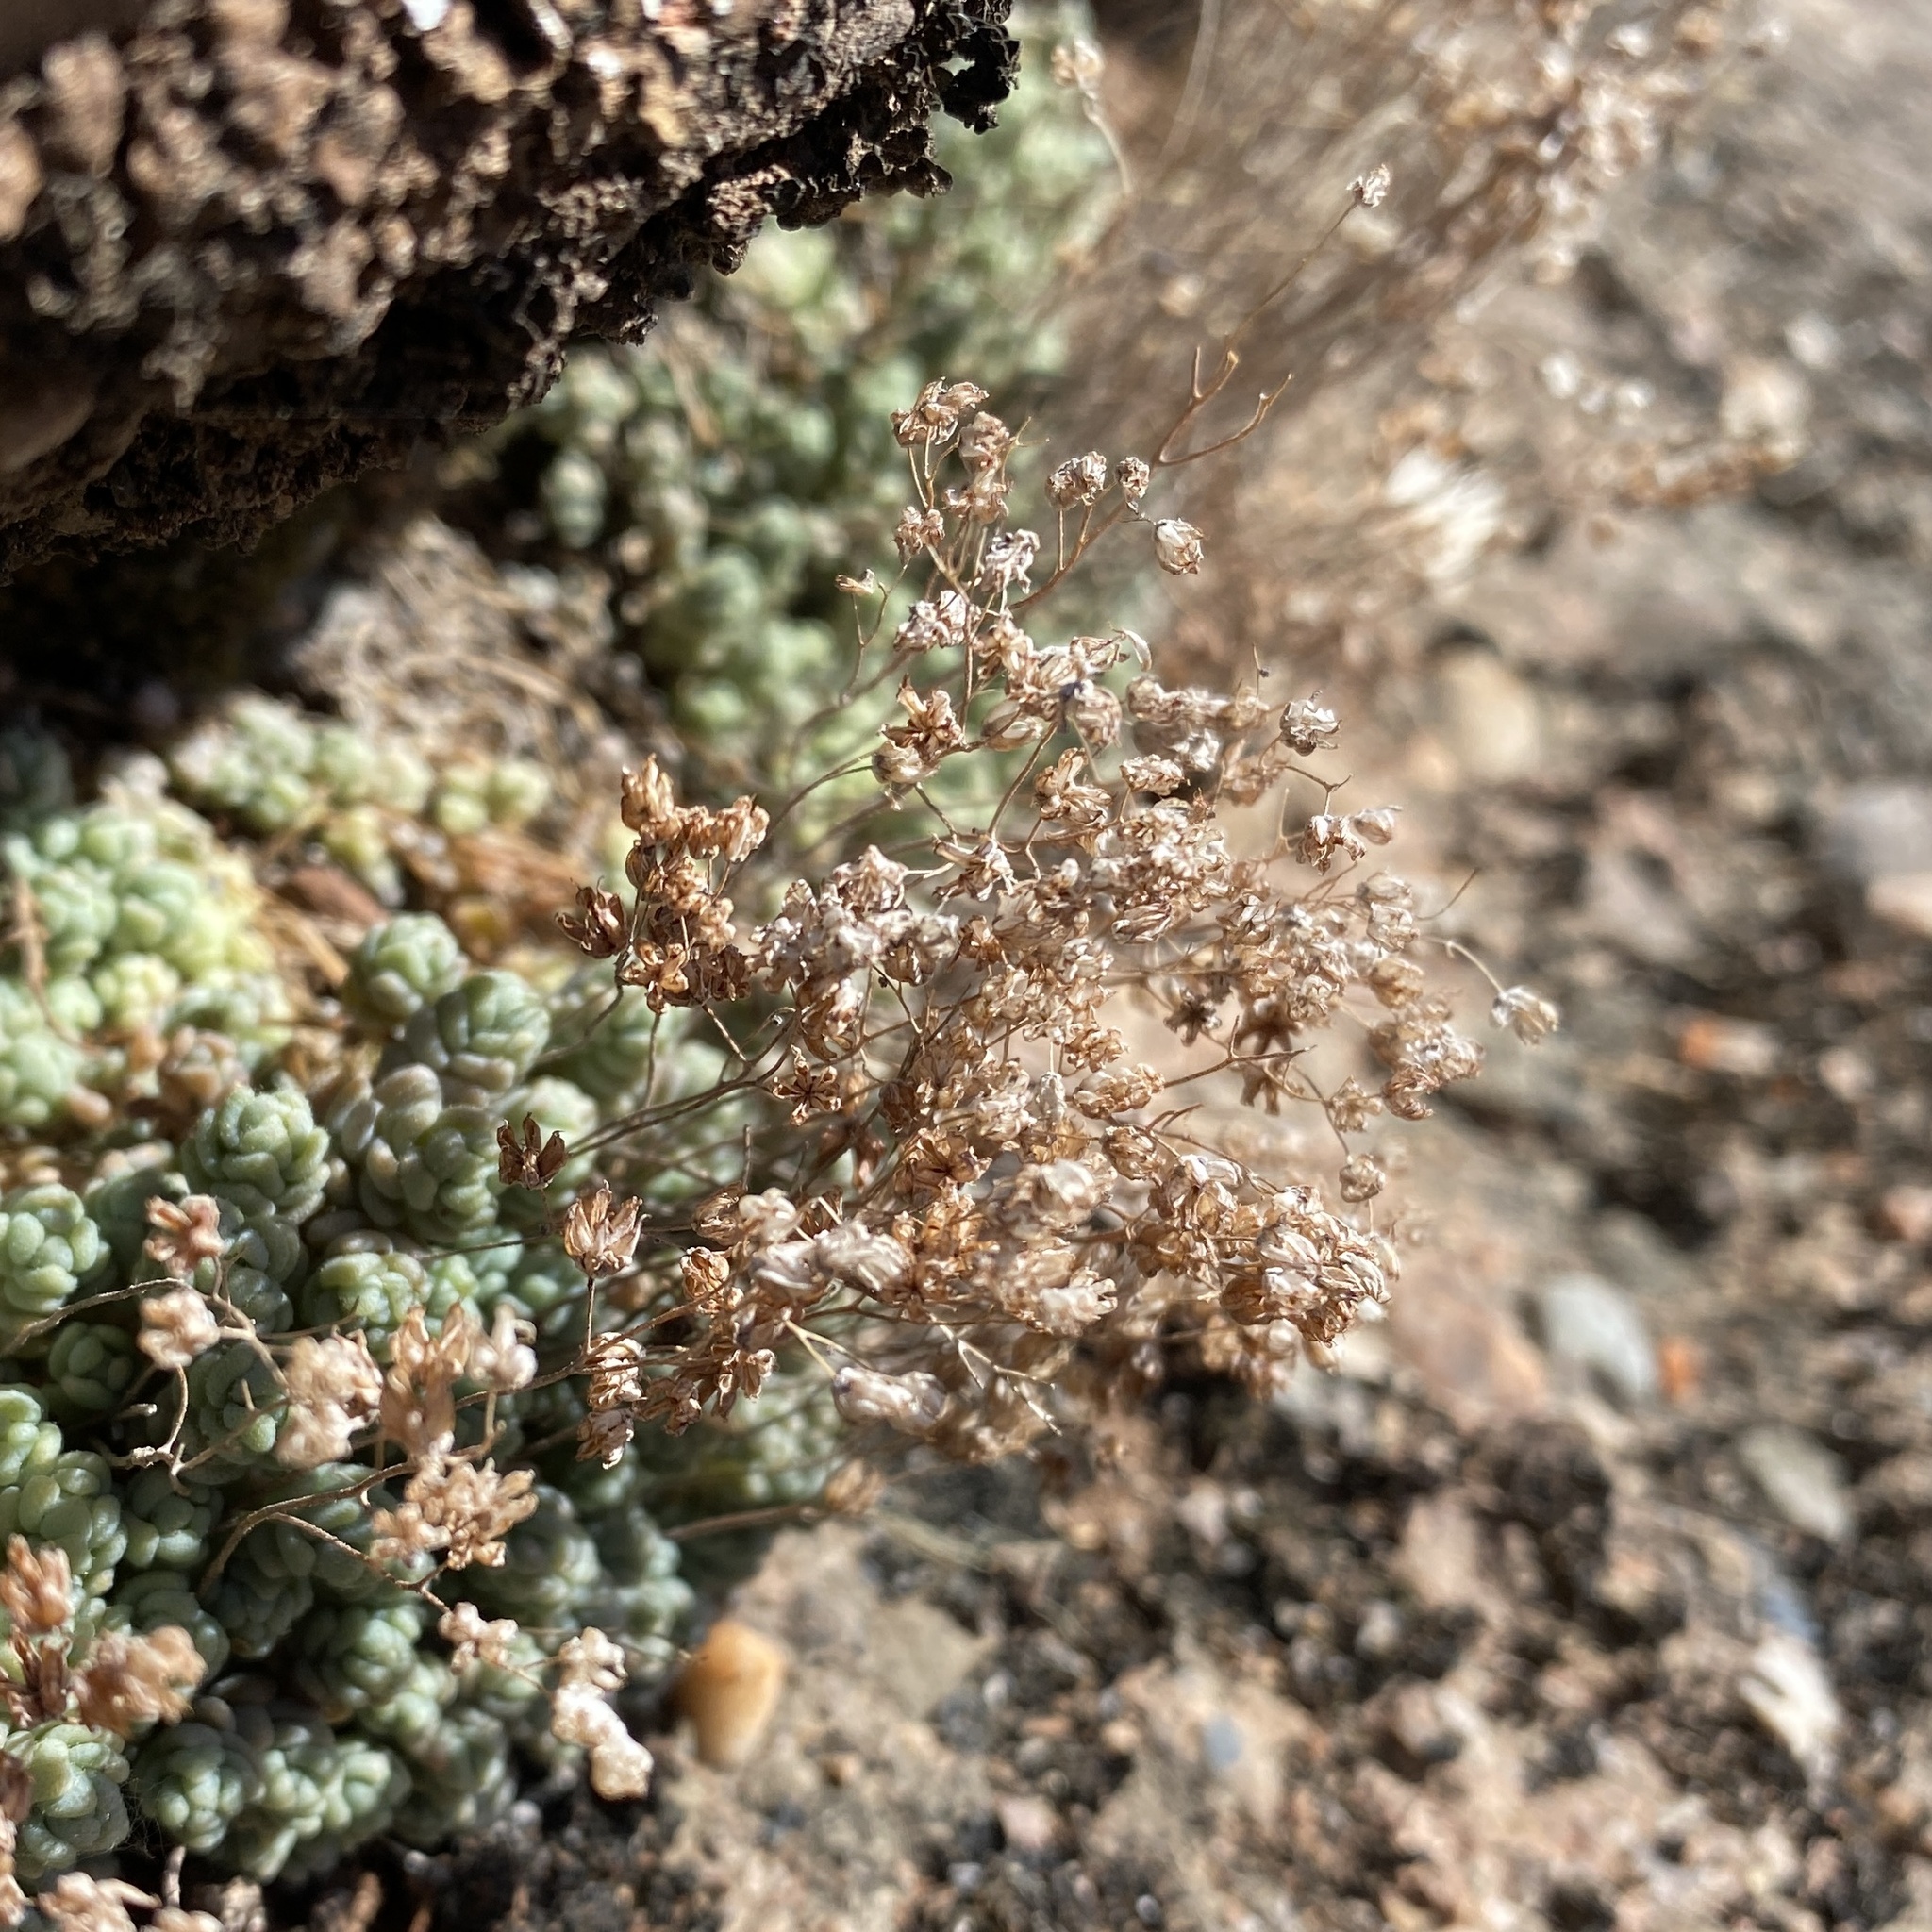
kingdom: Plantae
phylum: Tracheophyta
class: Magnoliopsida
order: Saxifragales
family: Crassulaceae
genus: Sedum
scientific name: Sedum dasyphyllum
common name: Thick-leaf stonecrop
